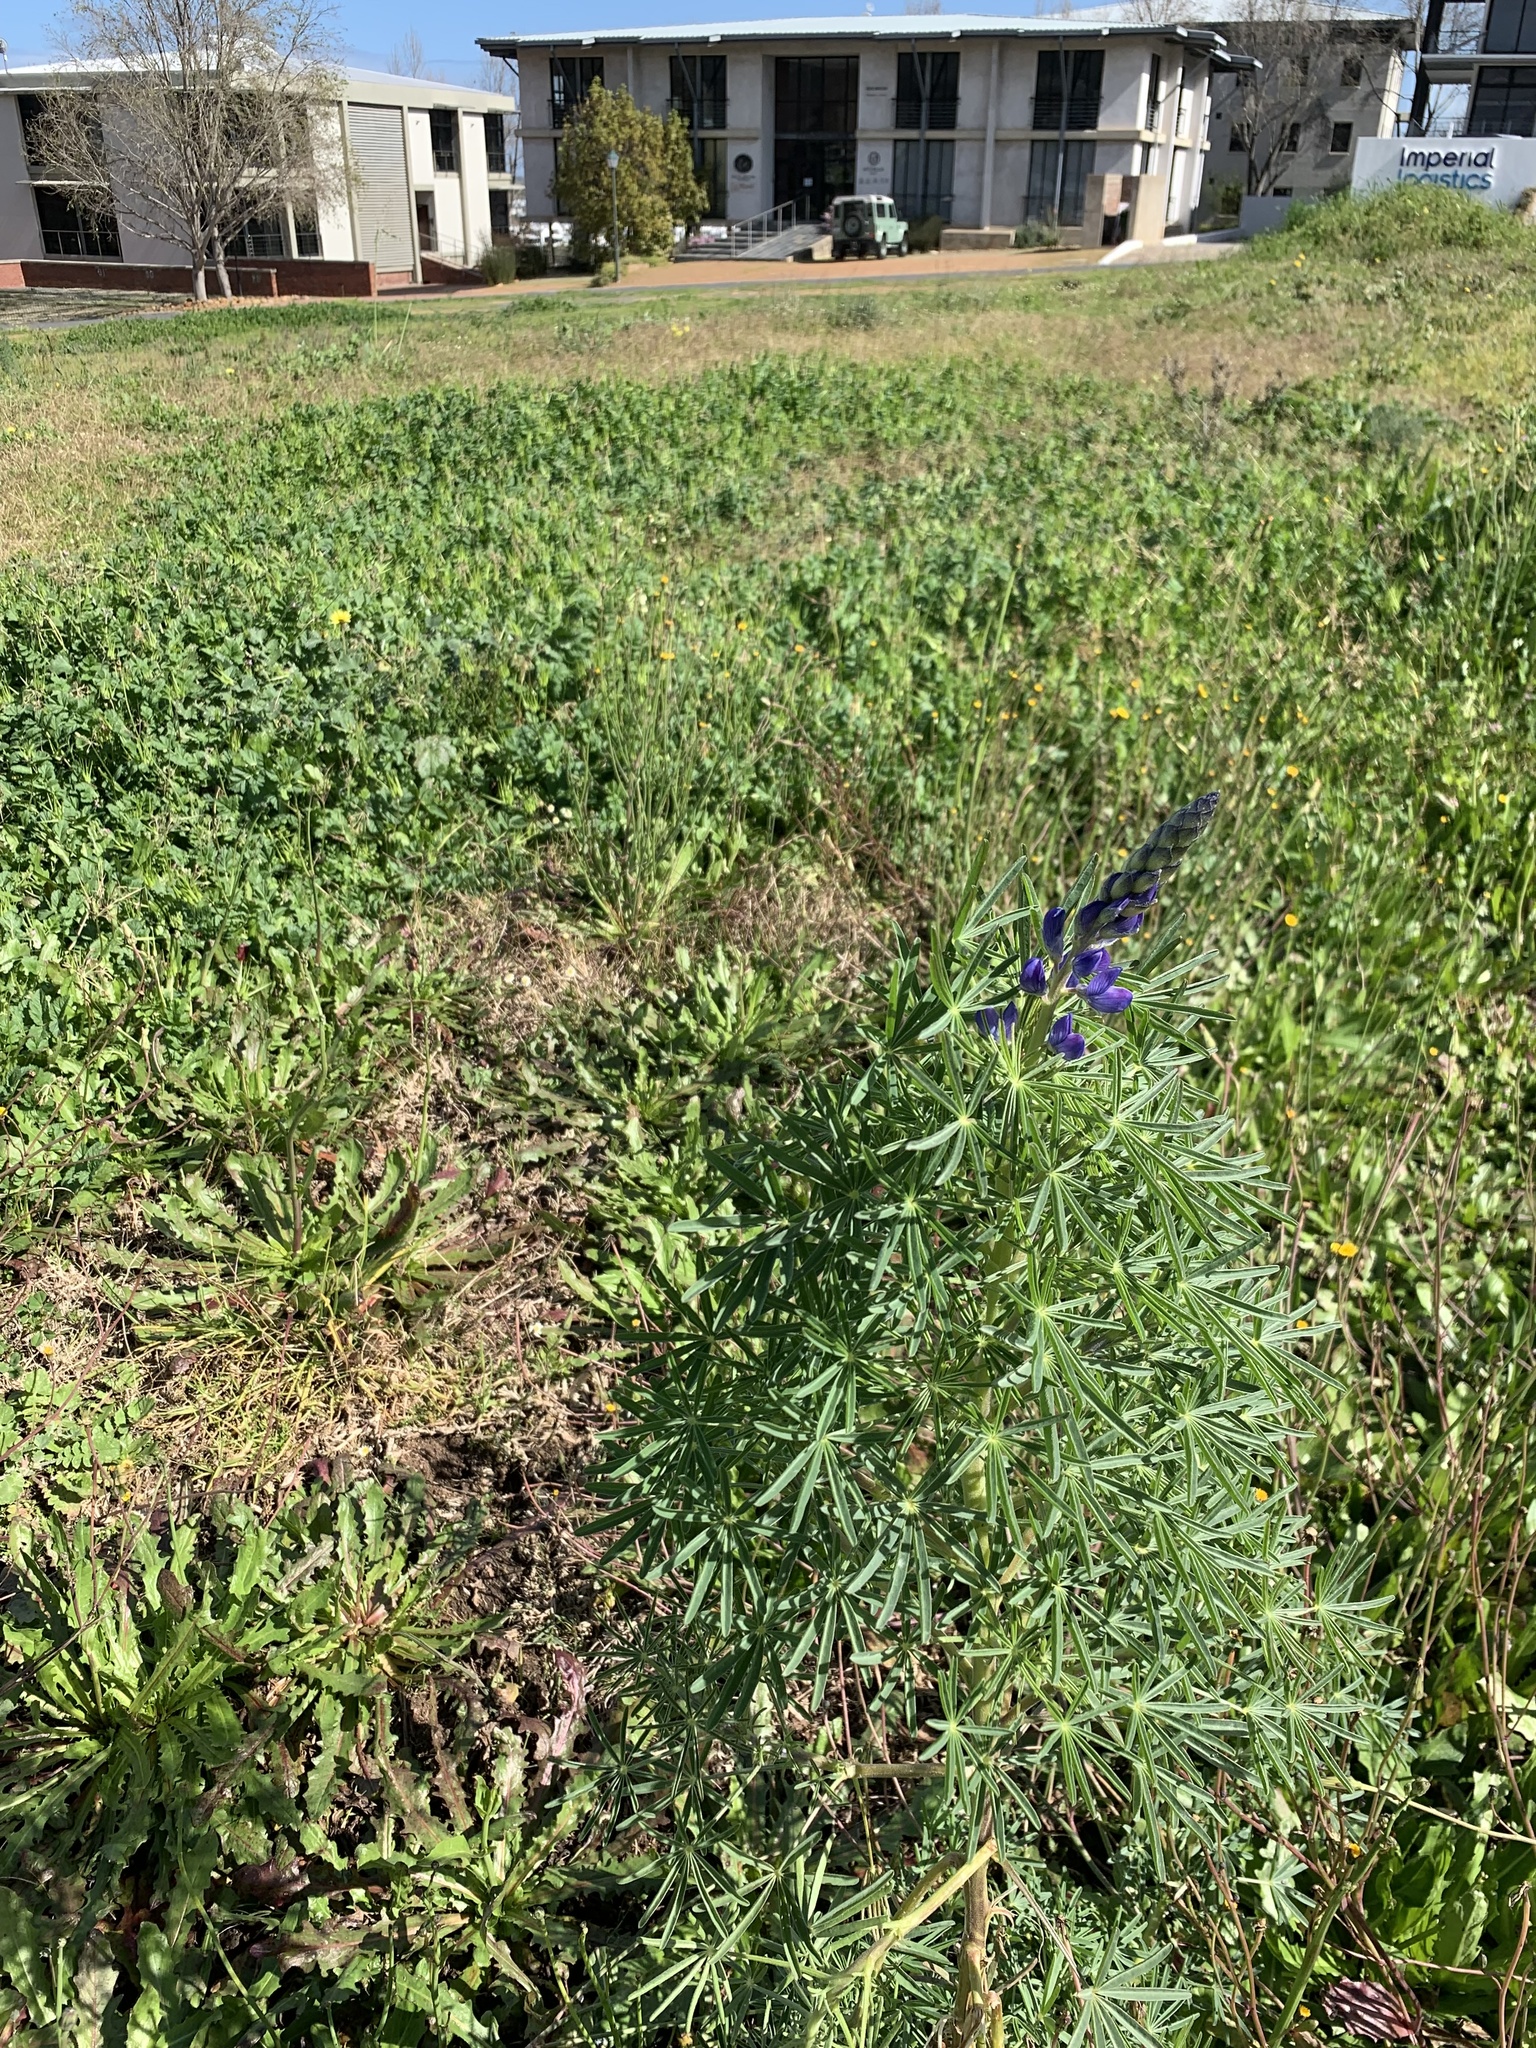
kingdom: Plantae
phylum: Tracheophyta
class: Magnoliopsida
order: Fabales
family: Fabaceae
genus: Lupinus
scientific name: Lupinus angustifolius
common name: Narrow-leaved lupin
